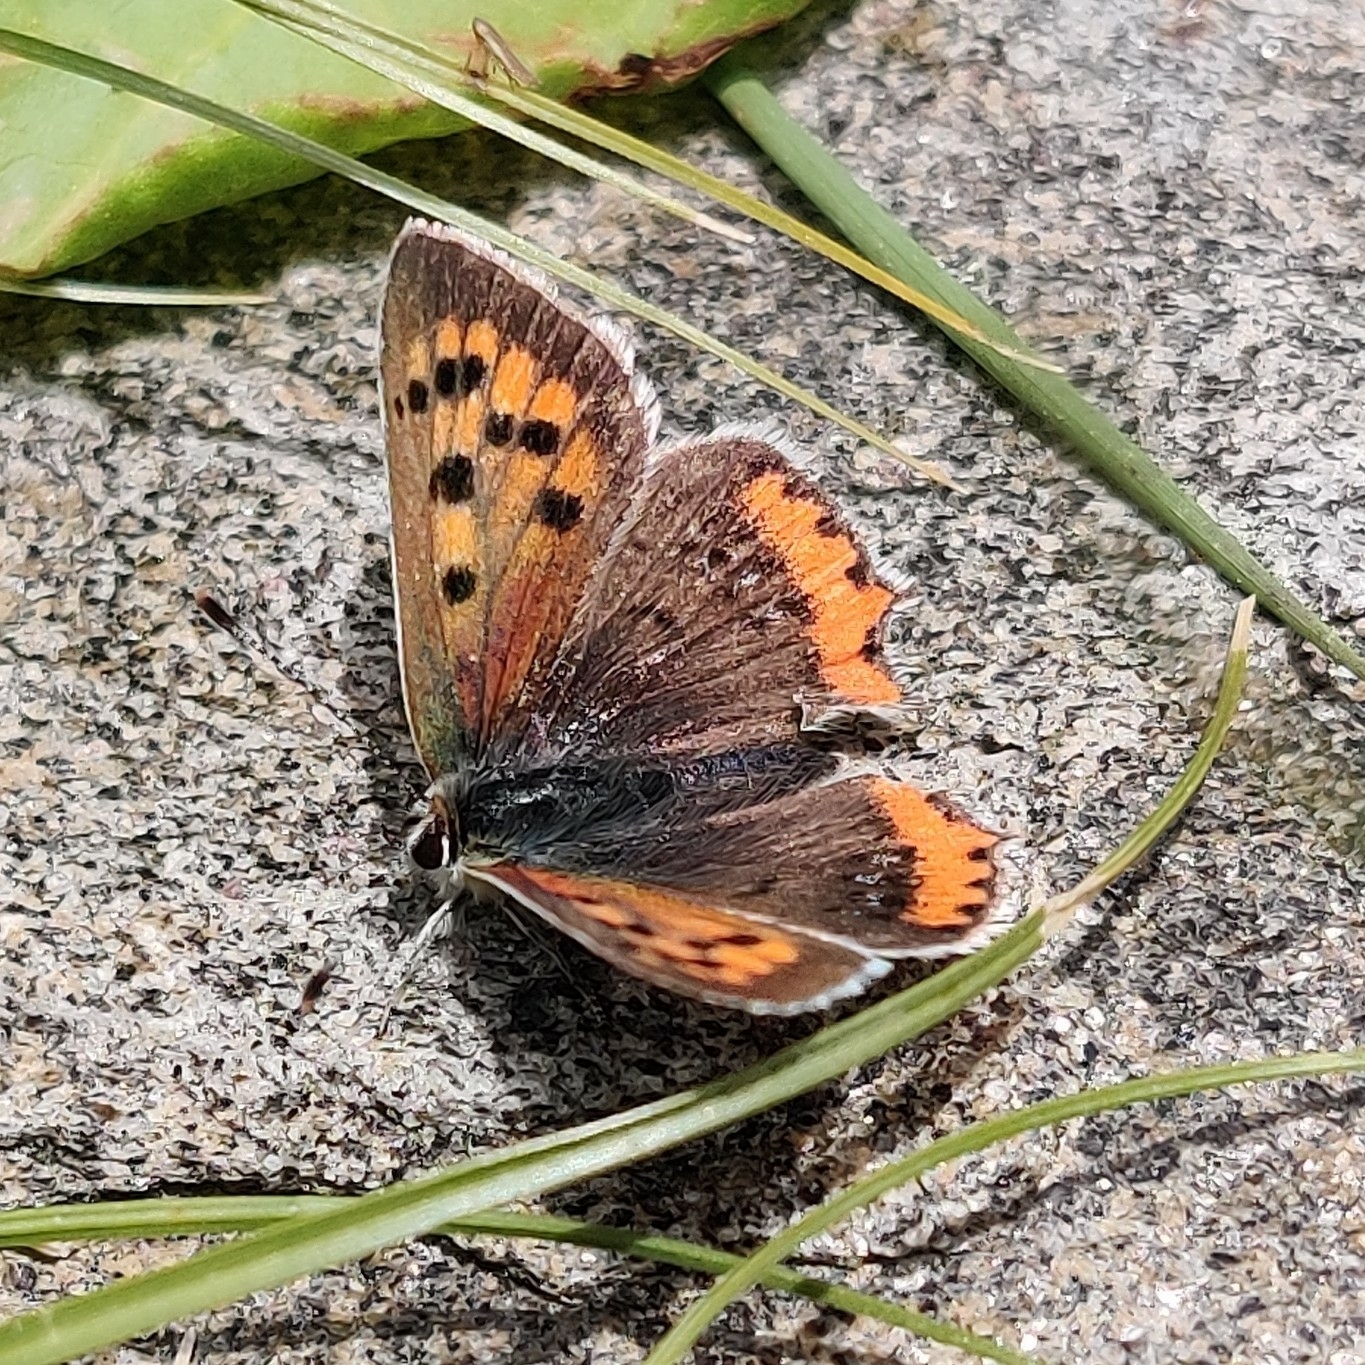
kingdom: Animalia
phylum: Arthropoda
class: Insecta
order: Lepidoptera
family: Lycaenidae
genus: Lycaena
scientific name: Lycaena phlaeas
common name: Small copper
